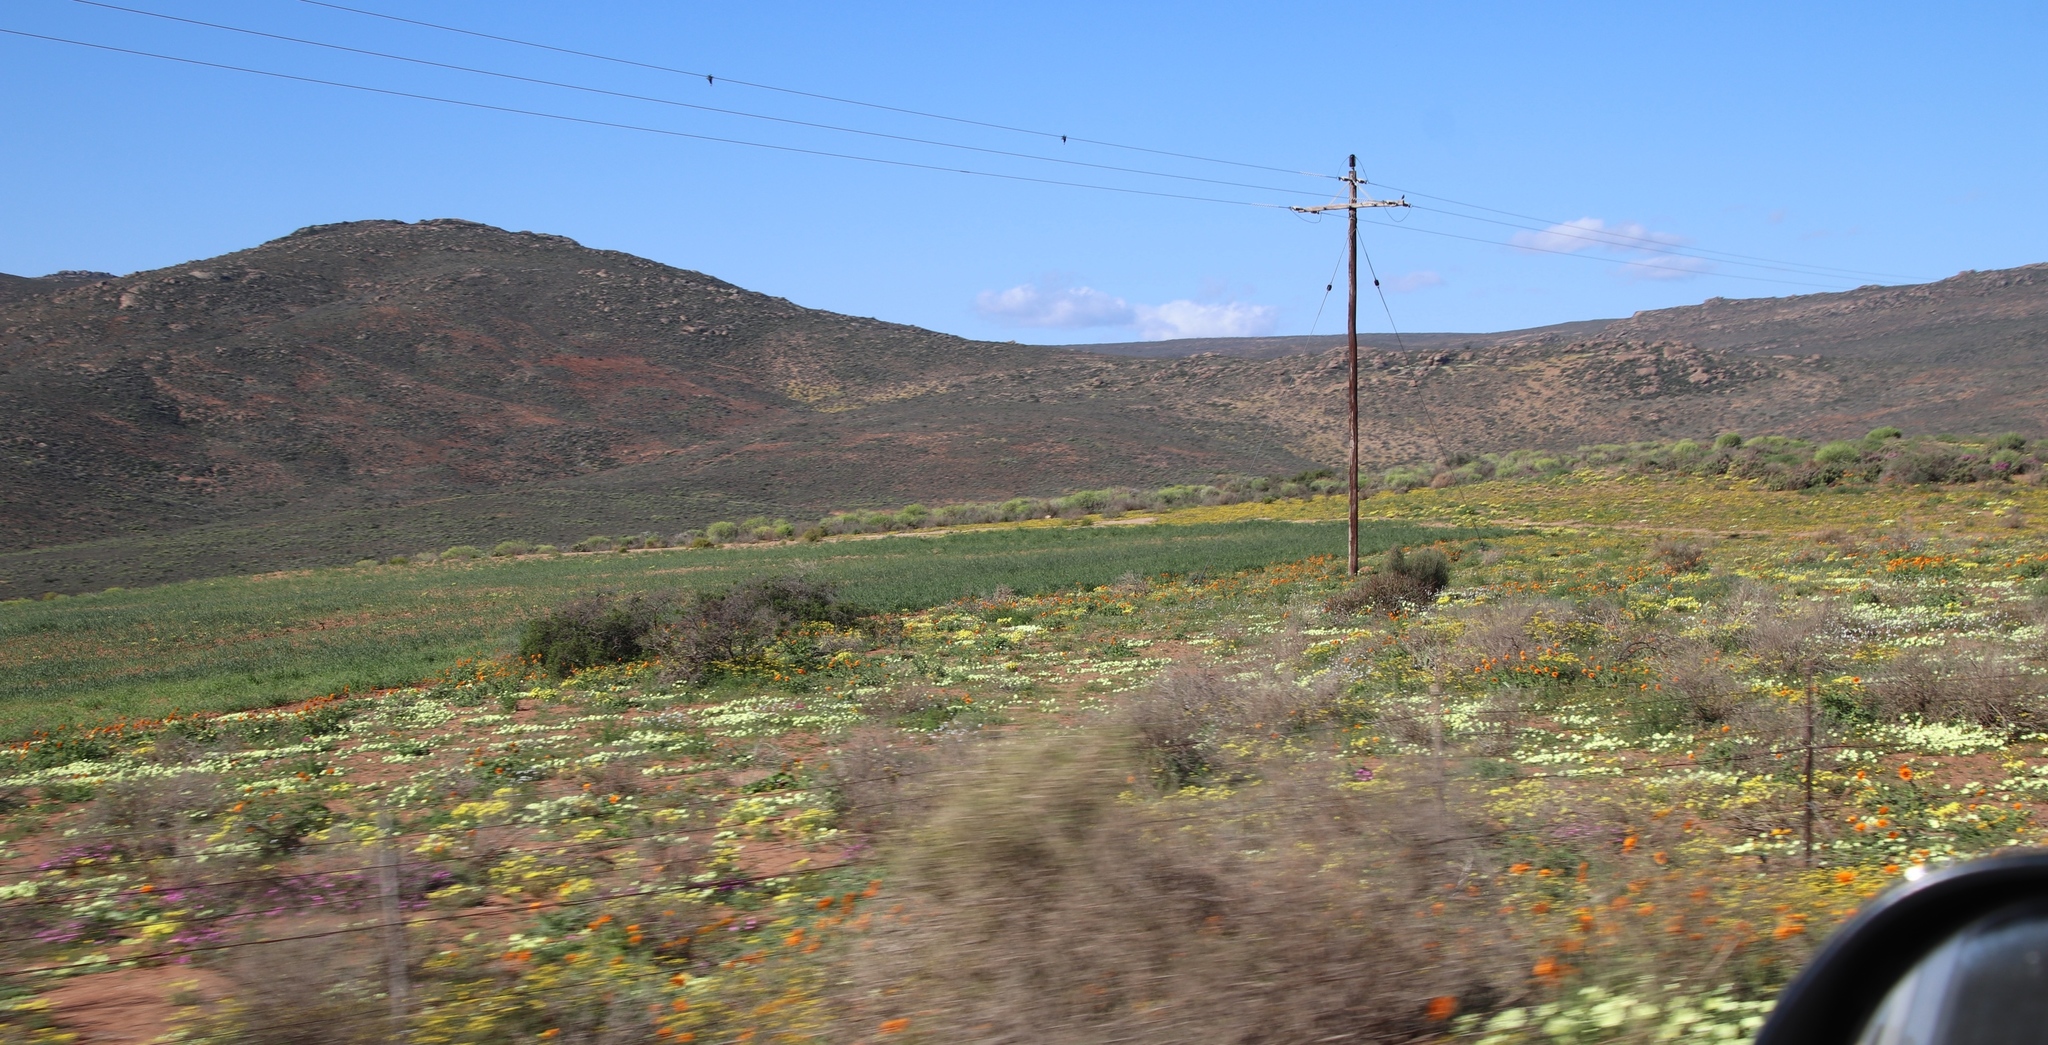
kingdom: Plantae
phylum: Tracheophyta
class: Magnoliopsida
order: Malvales
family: Neuradaceae
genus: Grielum
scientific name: Grielum humifusum
